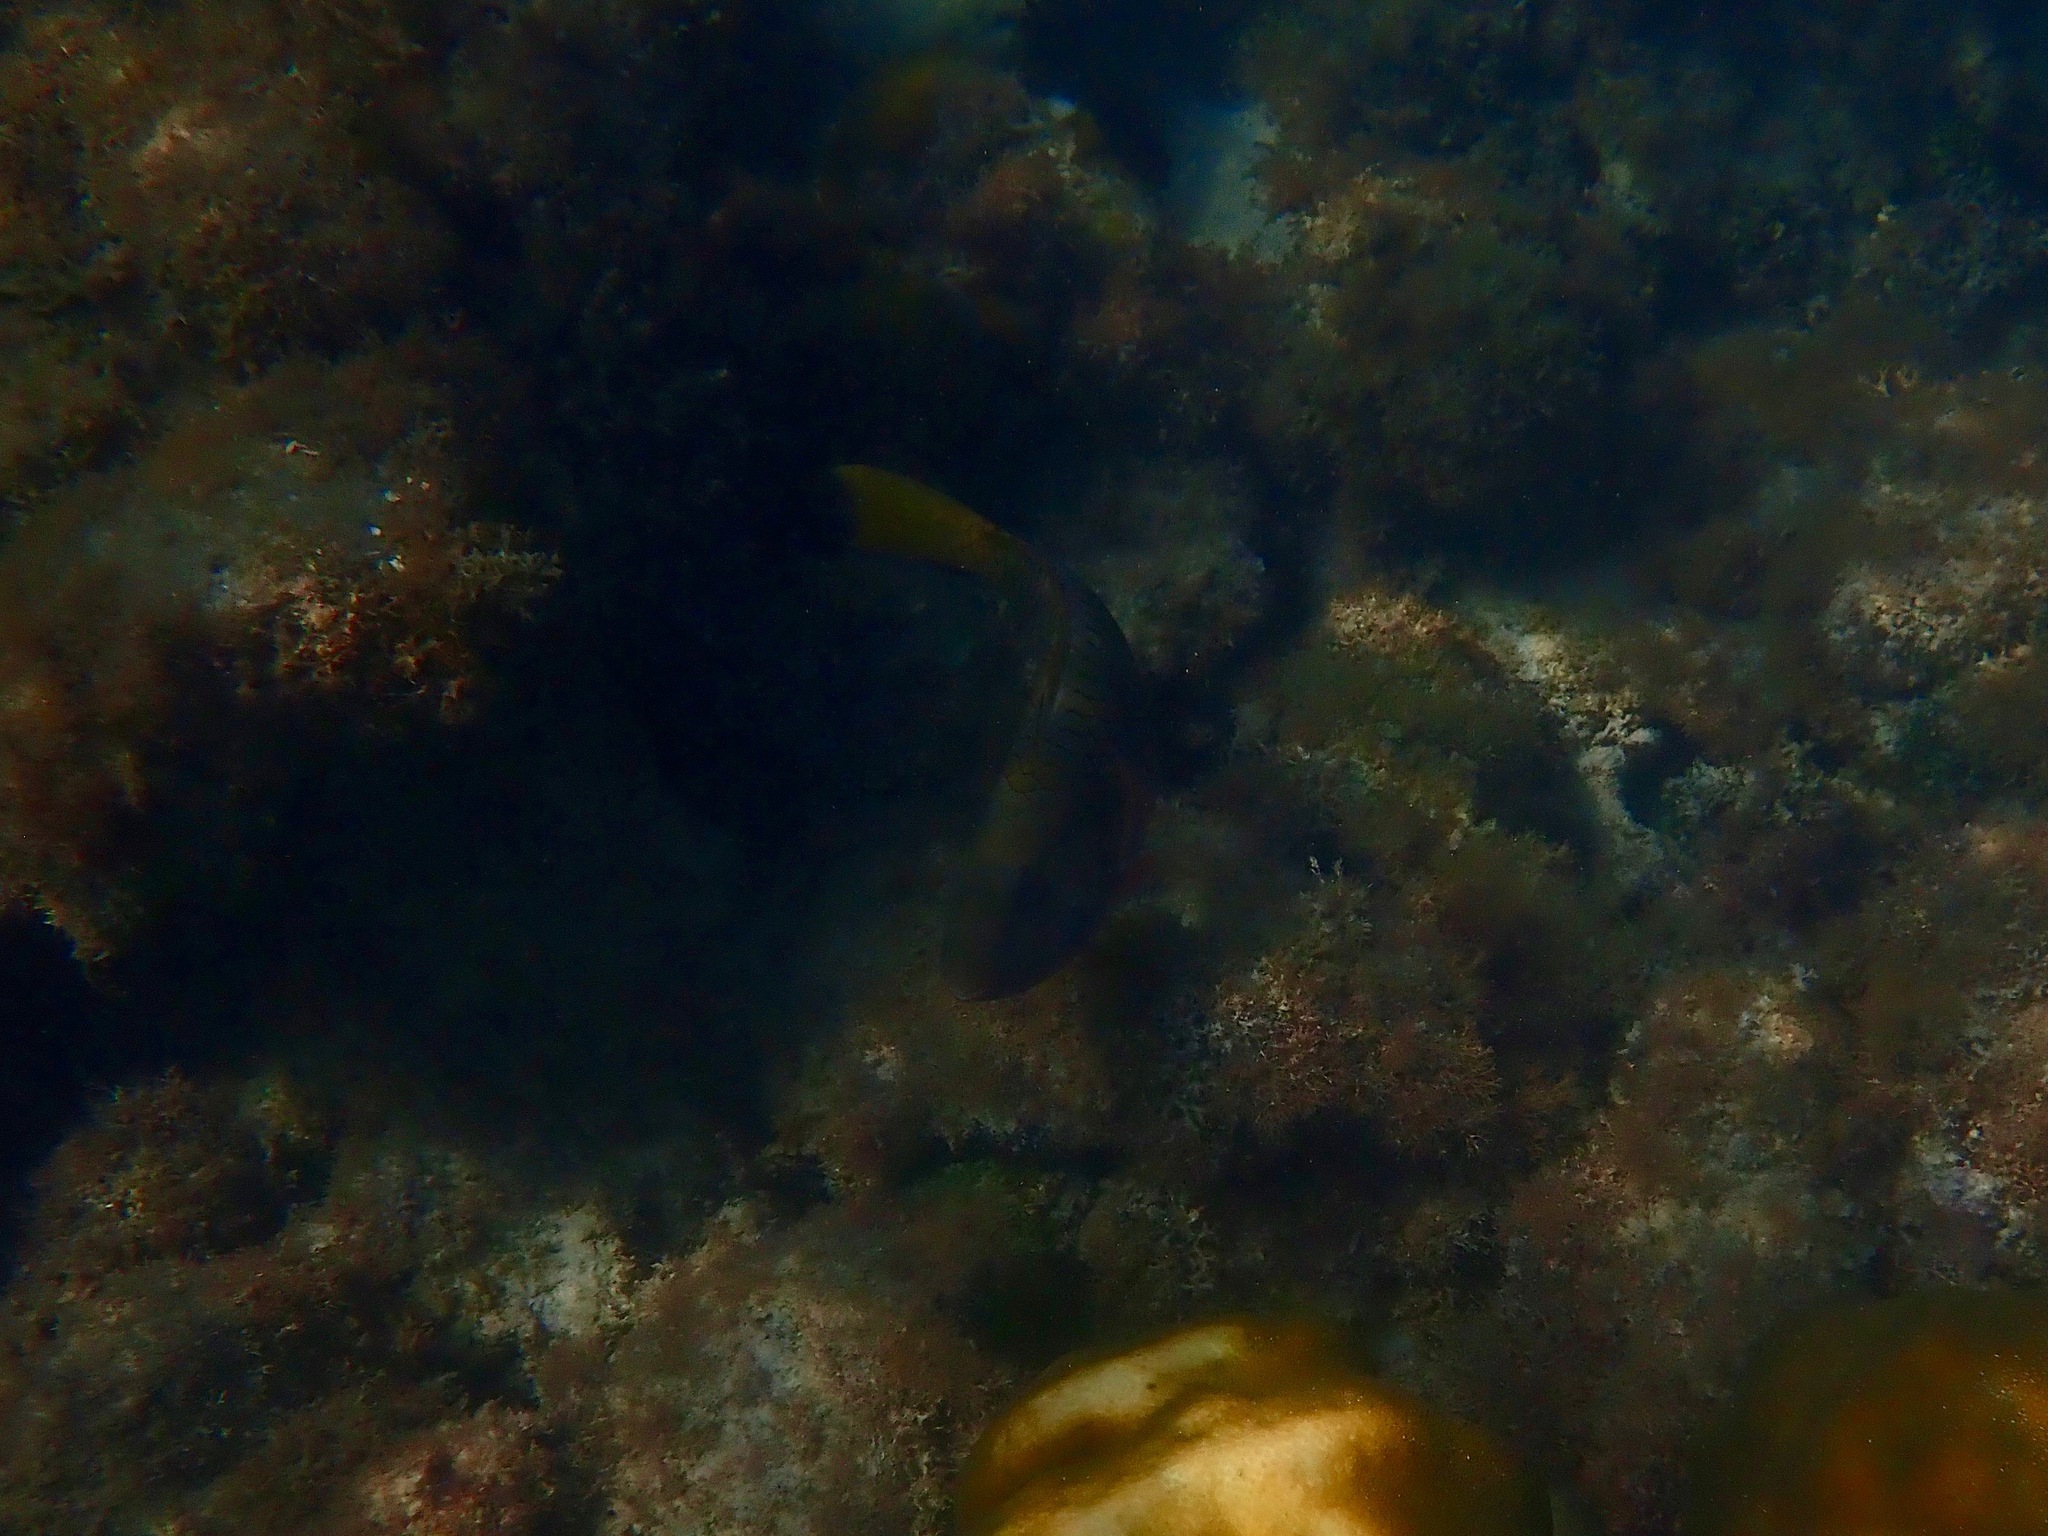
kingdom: Animalia
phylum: Chordata
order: Perciformes
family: Scaridae
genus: Sparisoma
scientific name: Sparisoma rubripinne
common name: Redfin parrotfish
